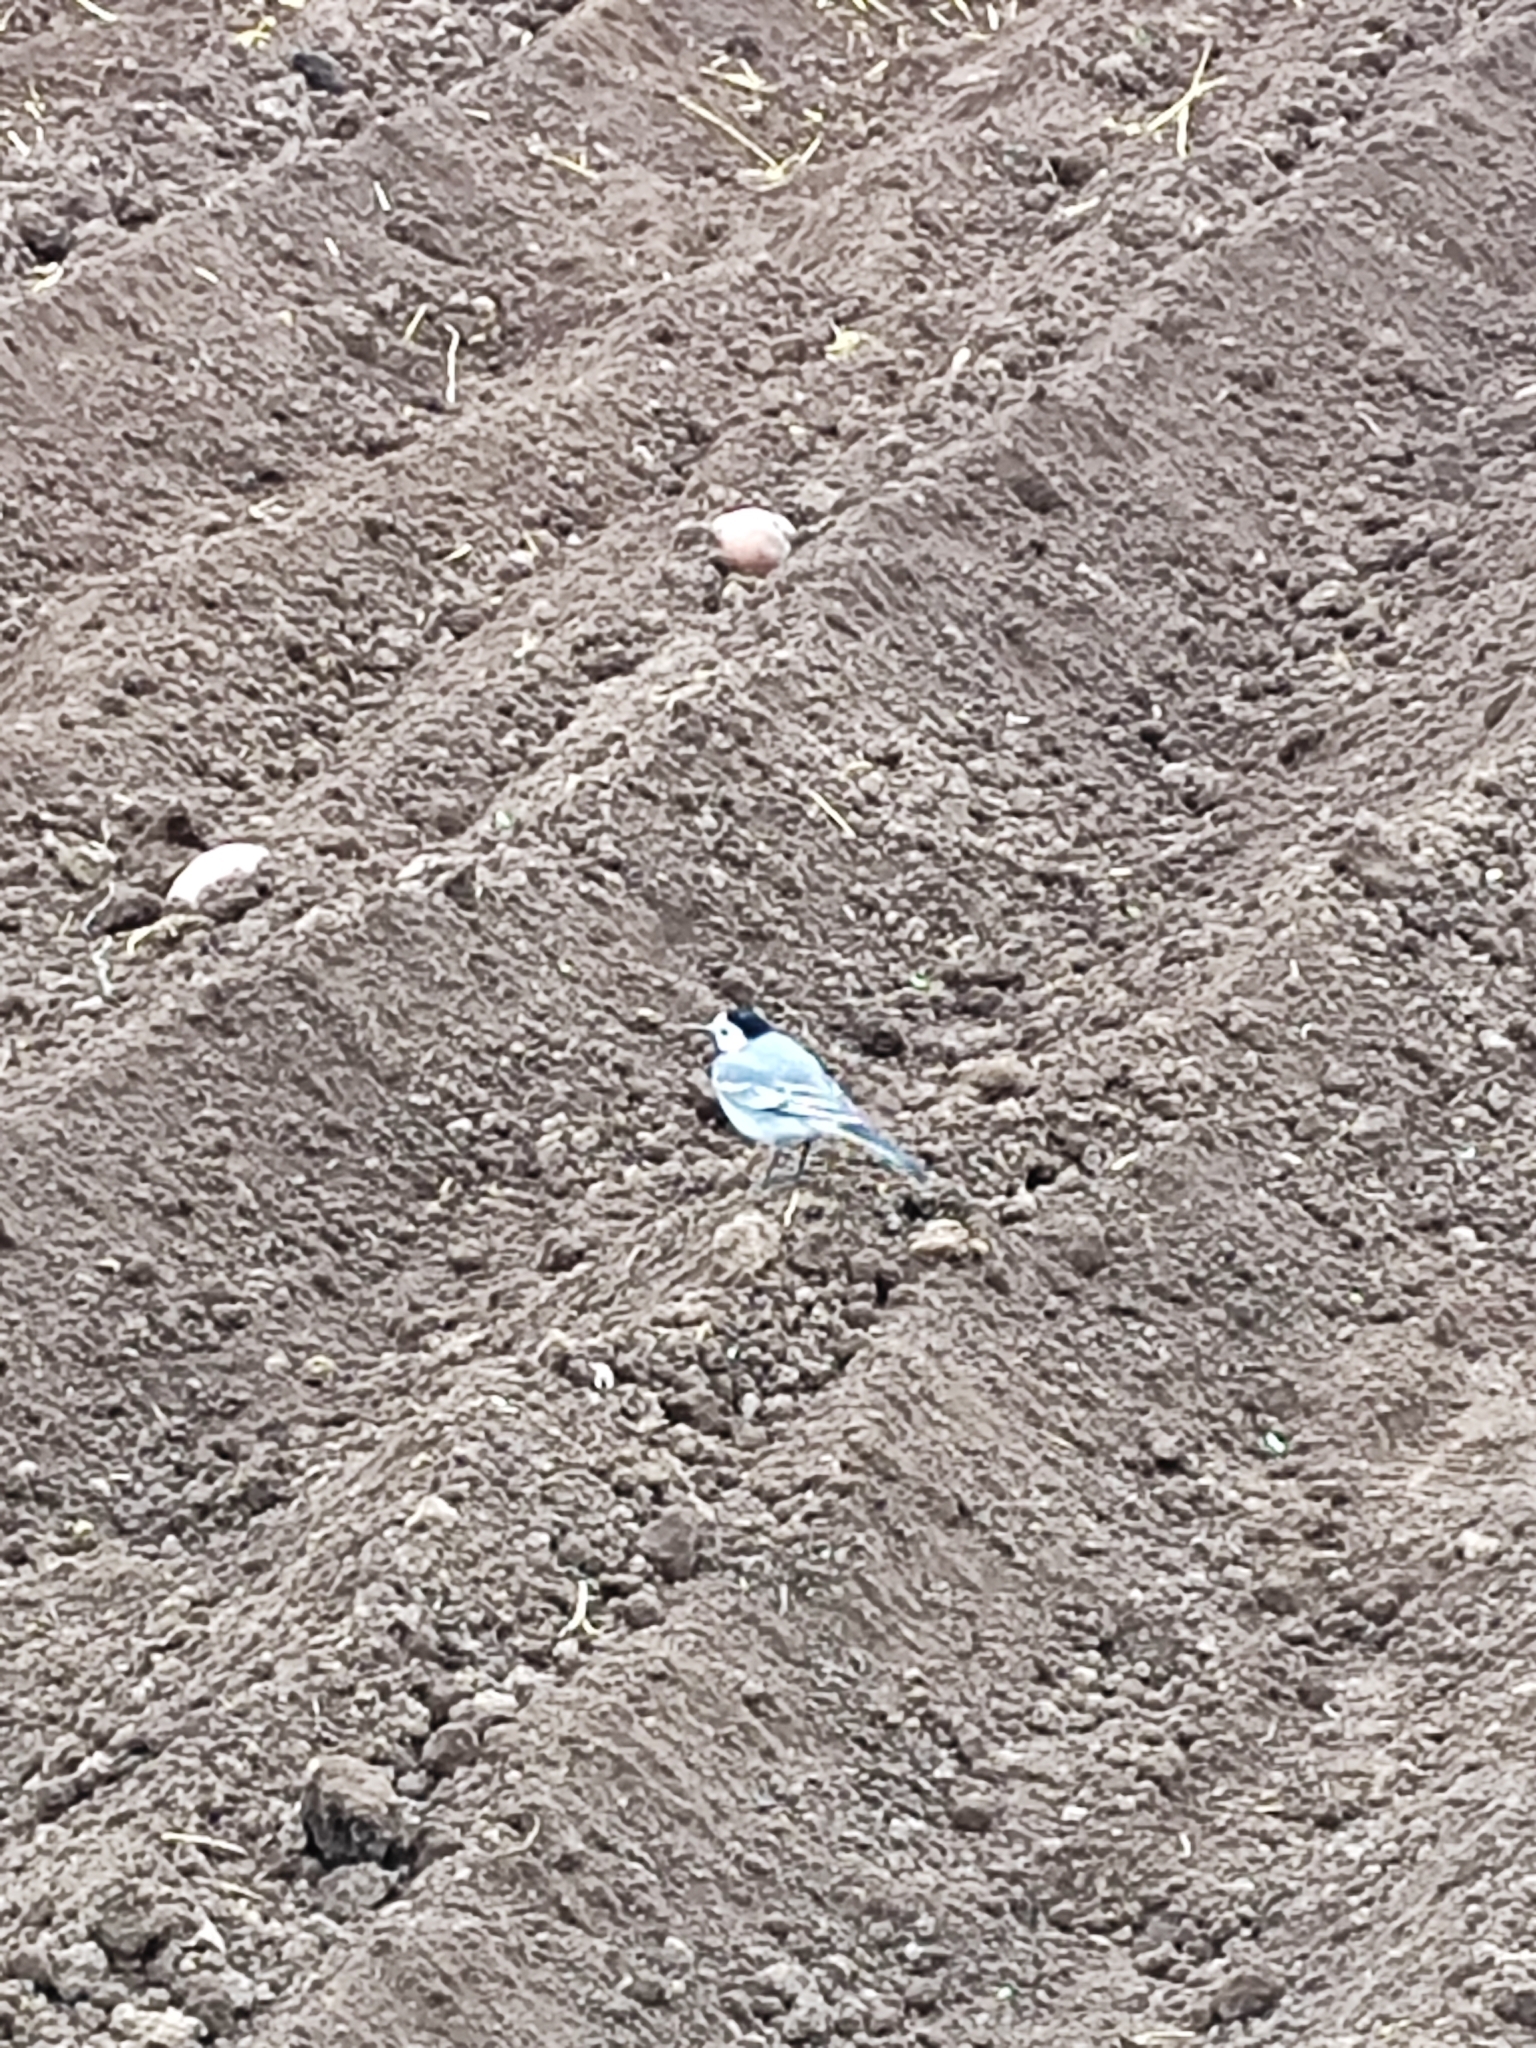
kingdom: Animalia
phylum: Chordata
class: Aves
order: Passeriformes
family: Motacillidae
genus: Motacilla
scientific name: Motacilla alba
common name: White wagtail
